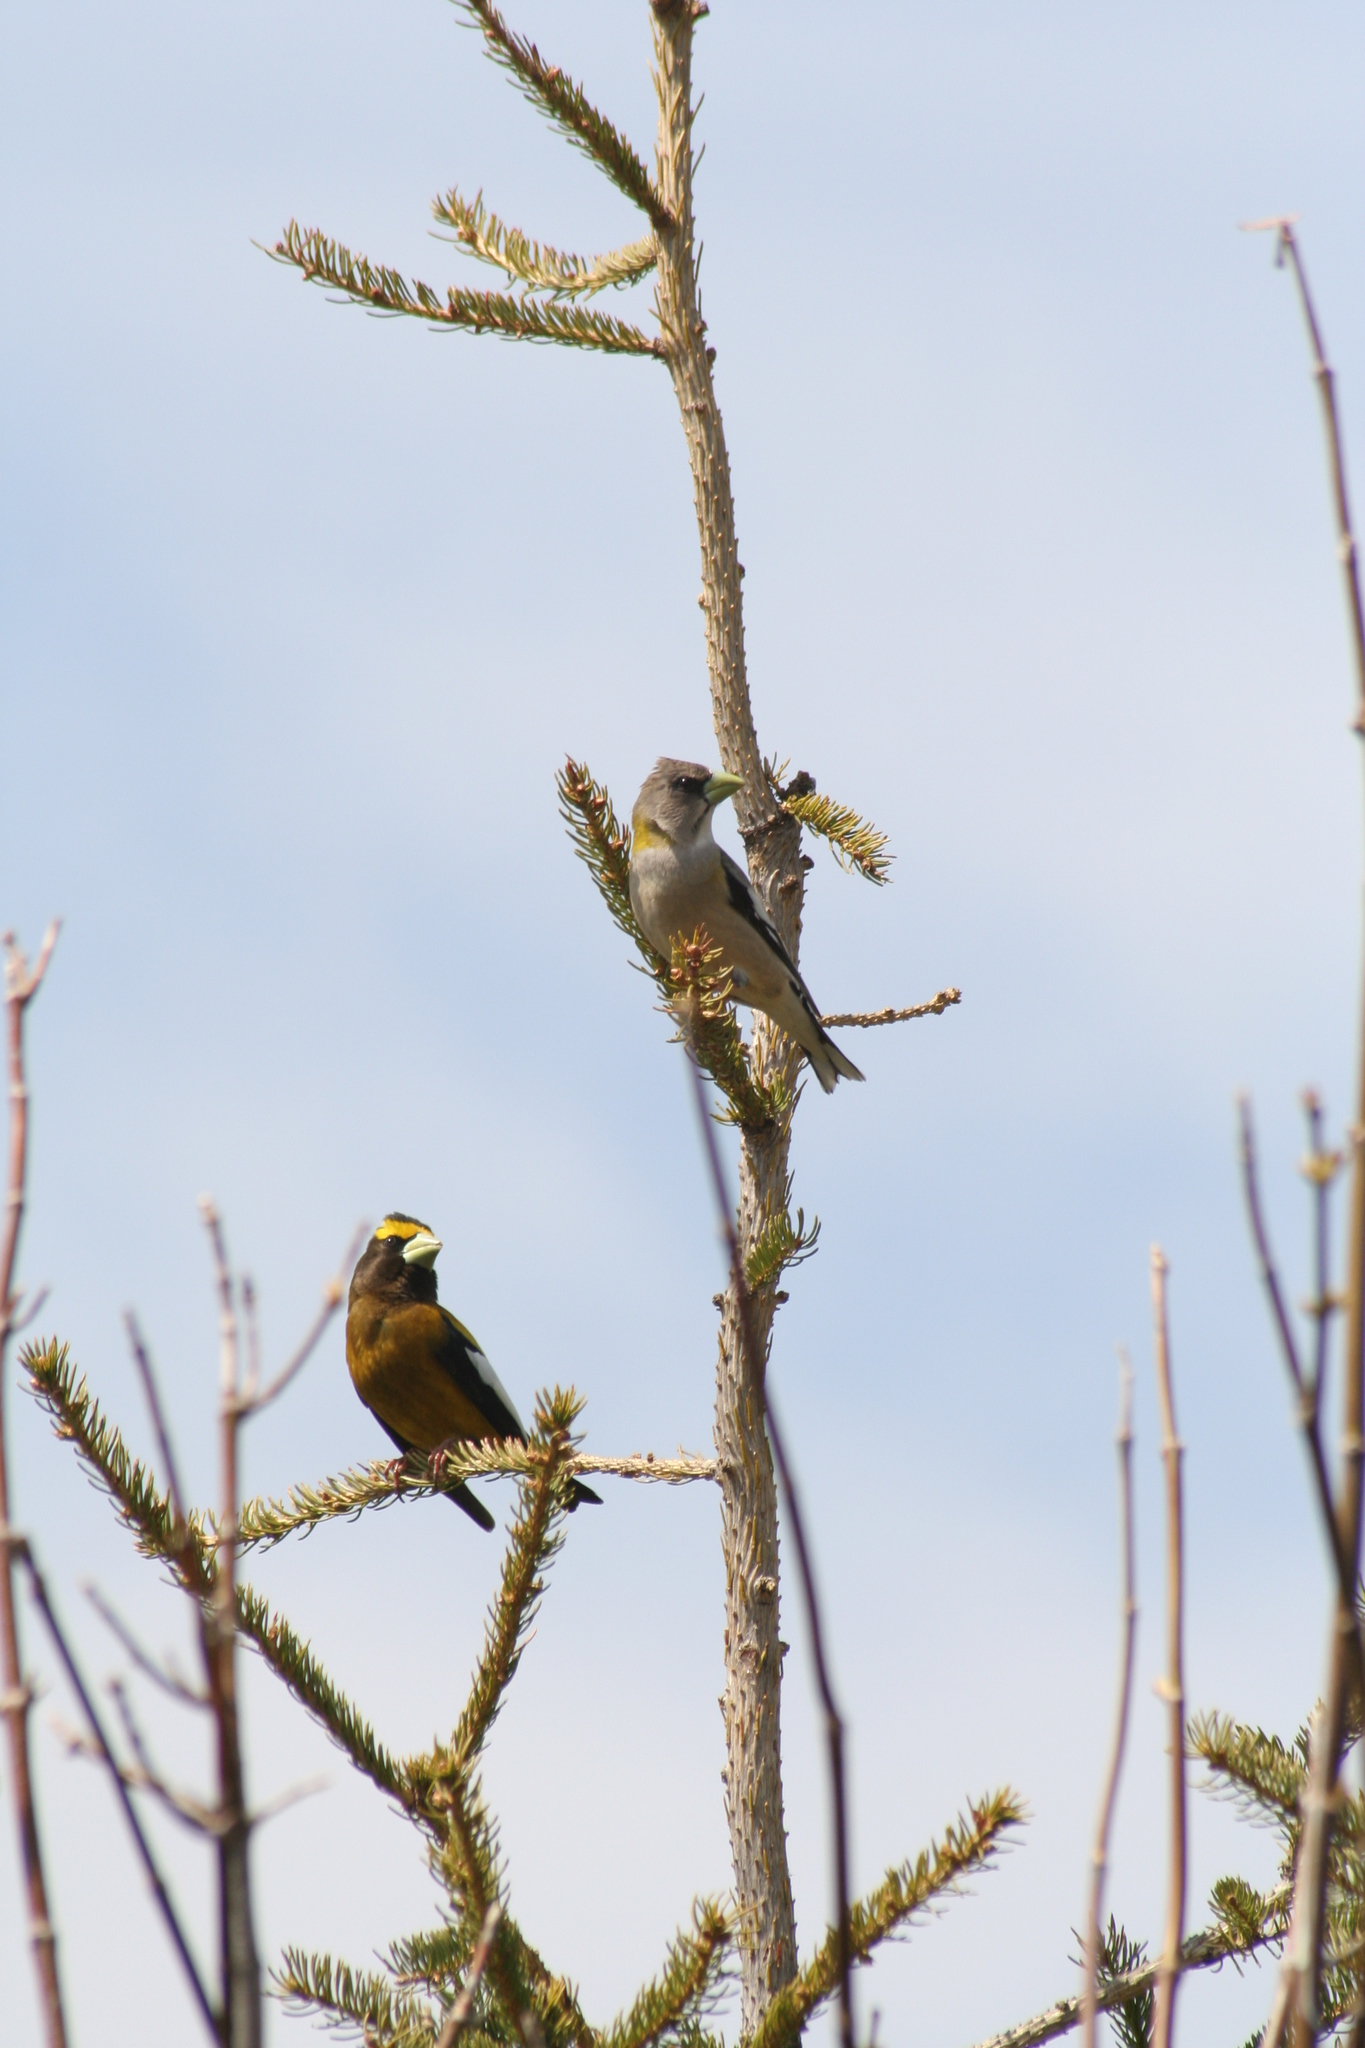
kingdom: Animalia
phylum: Chordata
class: Aves
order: Passeriformes
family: Fringillidae
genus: Hesperiphona
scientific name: Hesperiphona vespertina
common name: Evening grosbeak
